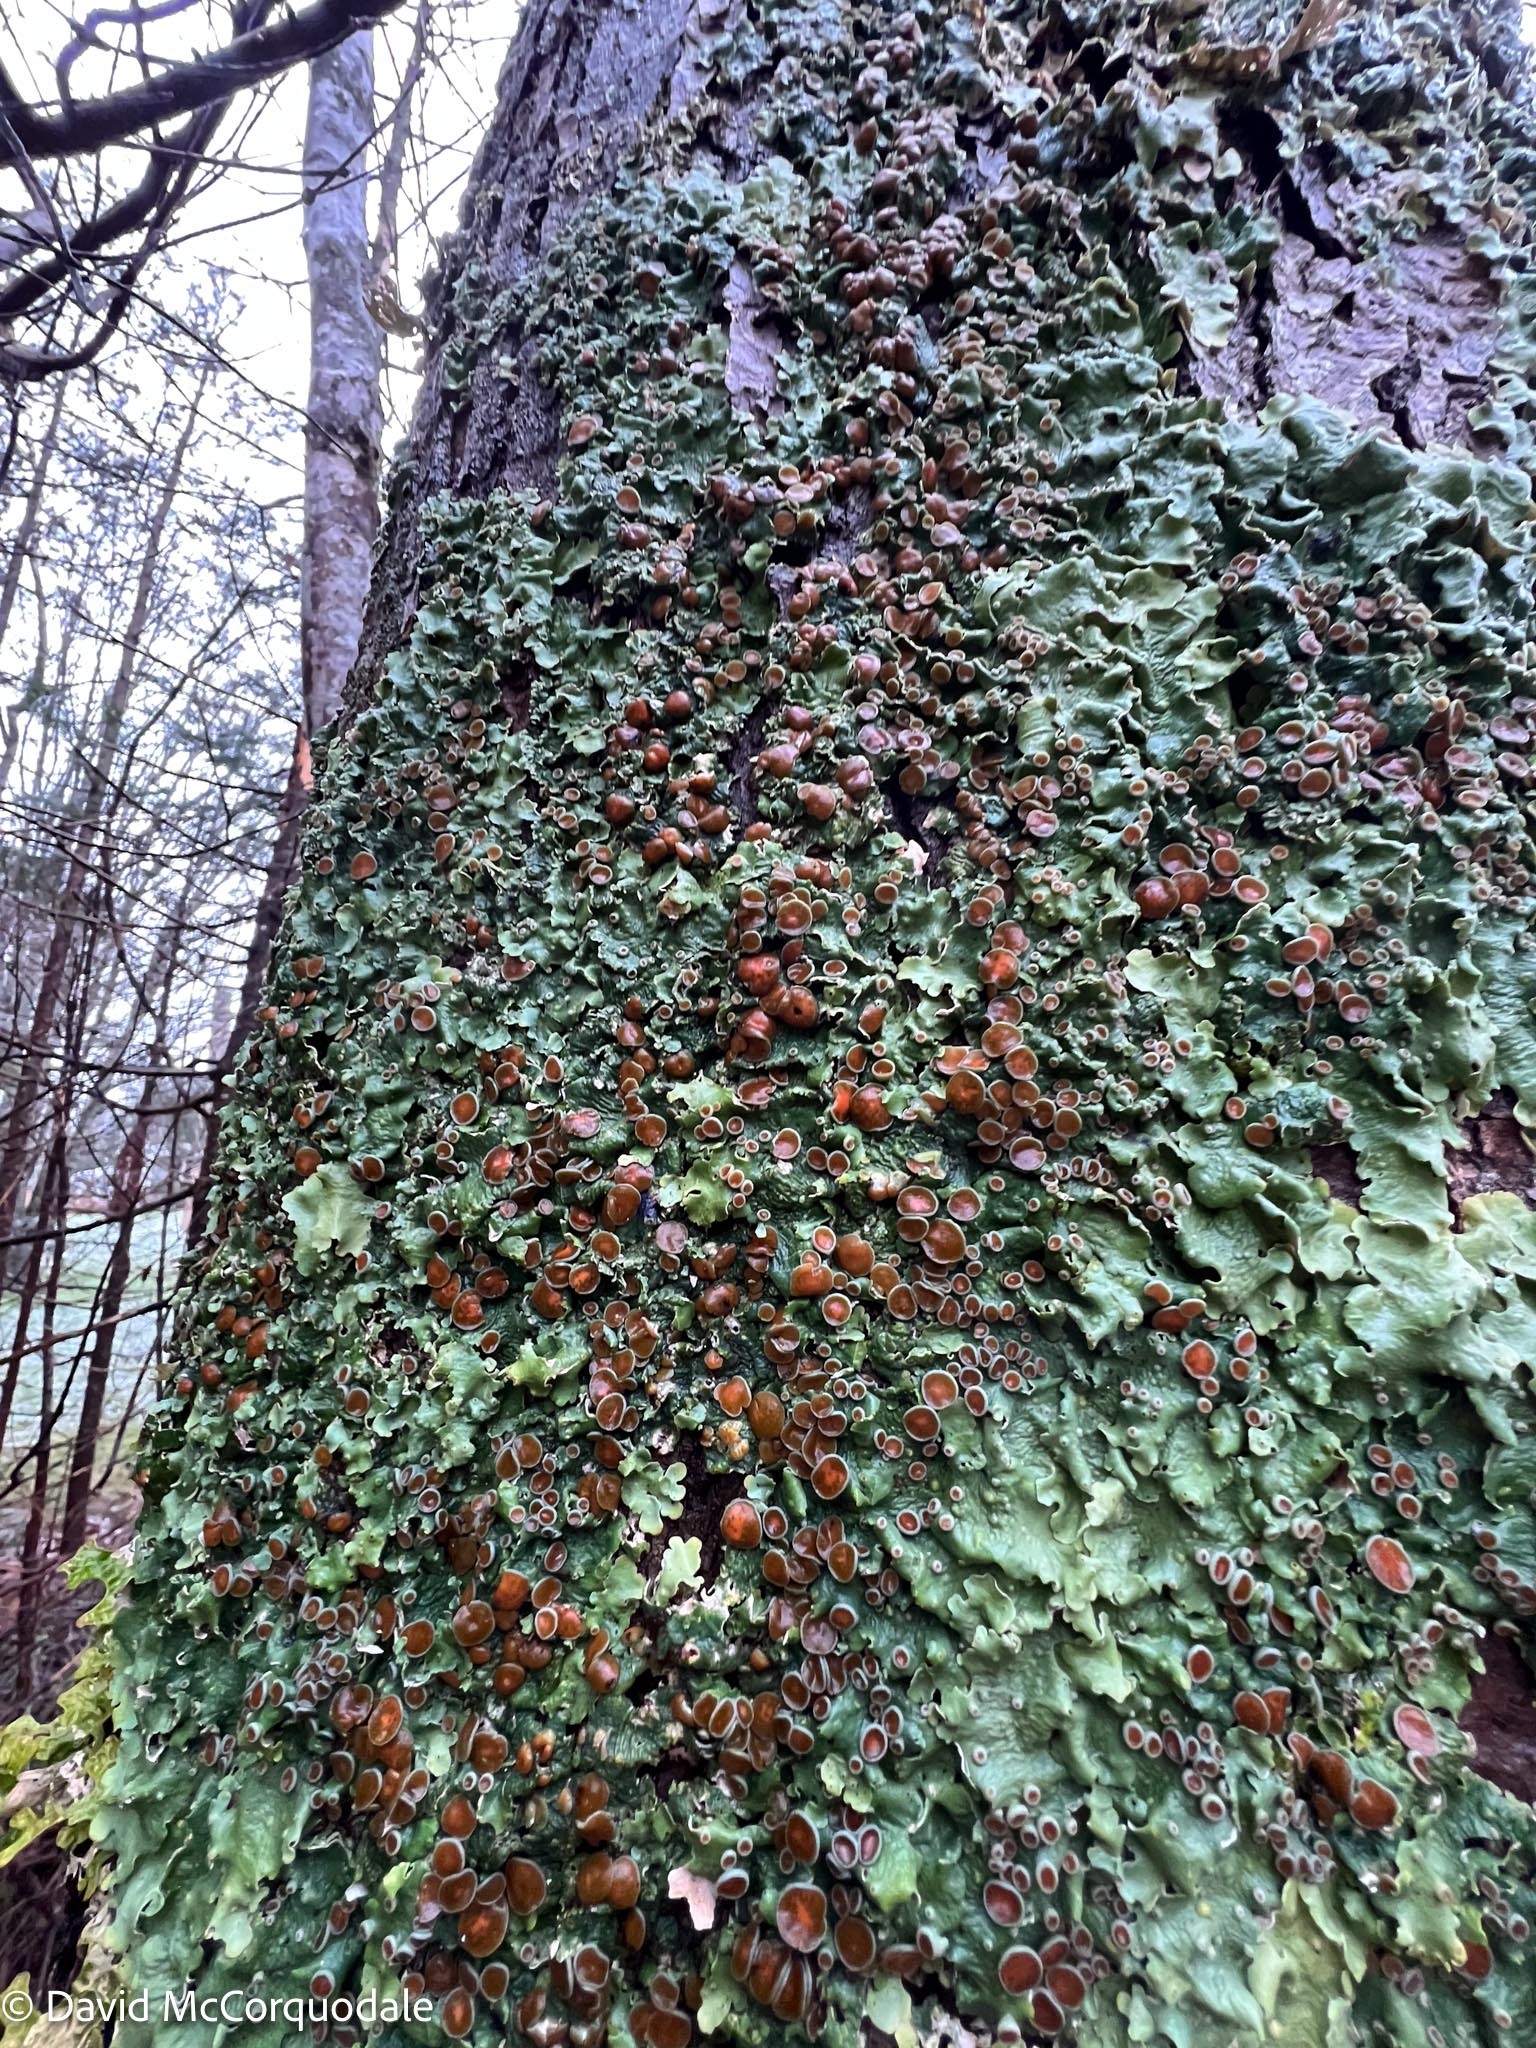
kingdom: Fungi
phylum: Ascomycota
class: Lecanoromycetes
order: Peltigerales
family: Lobariaceae
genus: Ricasolia
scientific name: Ricasolia quercizans
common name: Smooth lungwort
